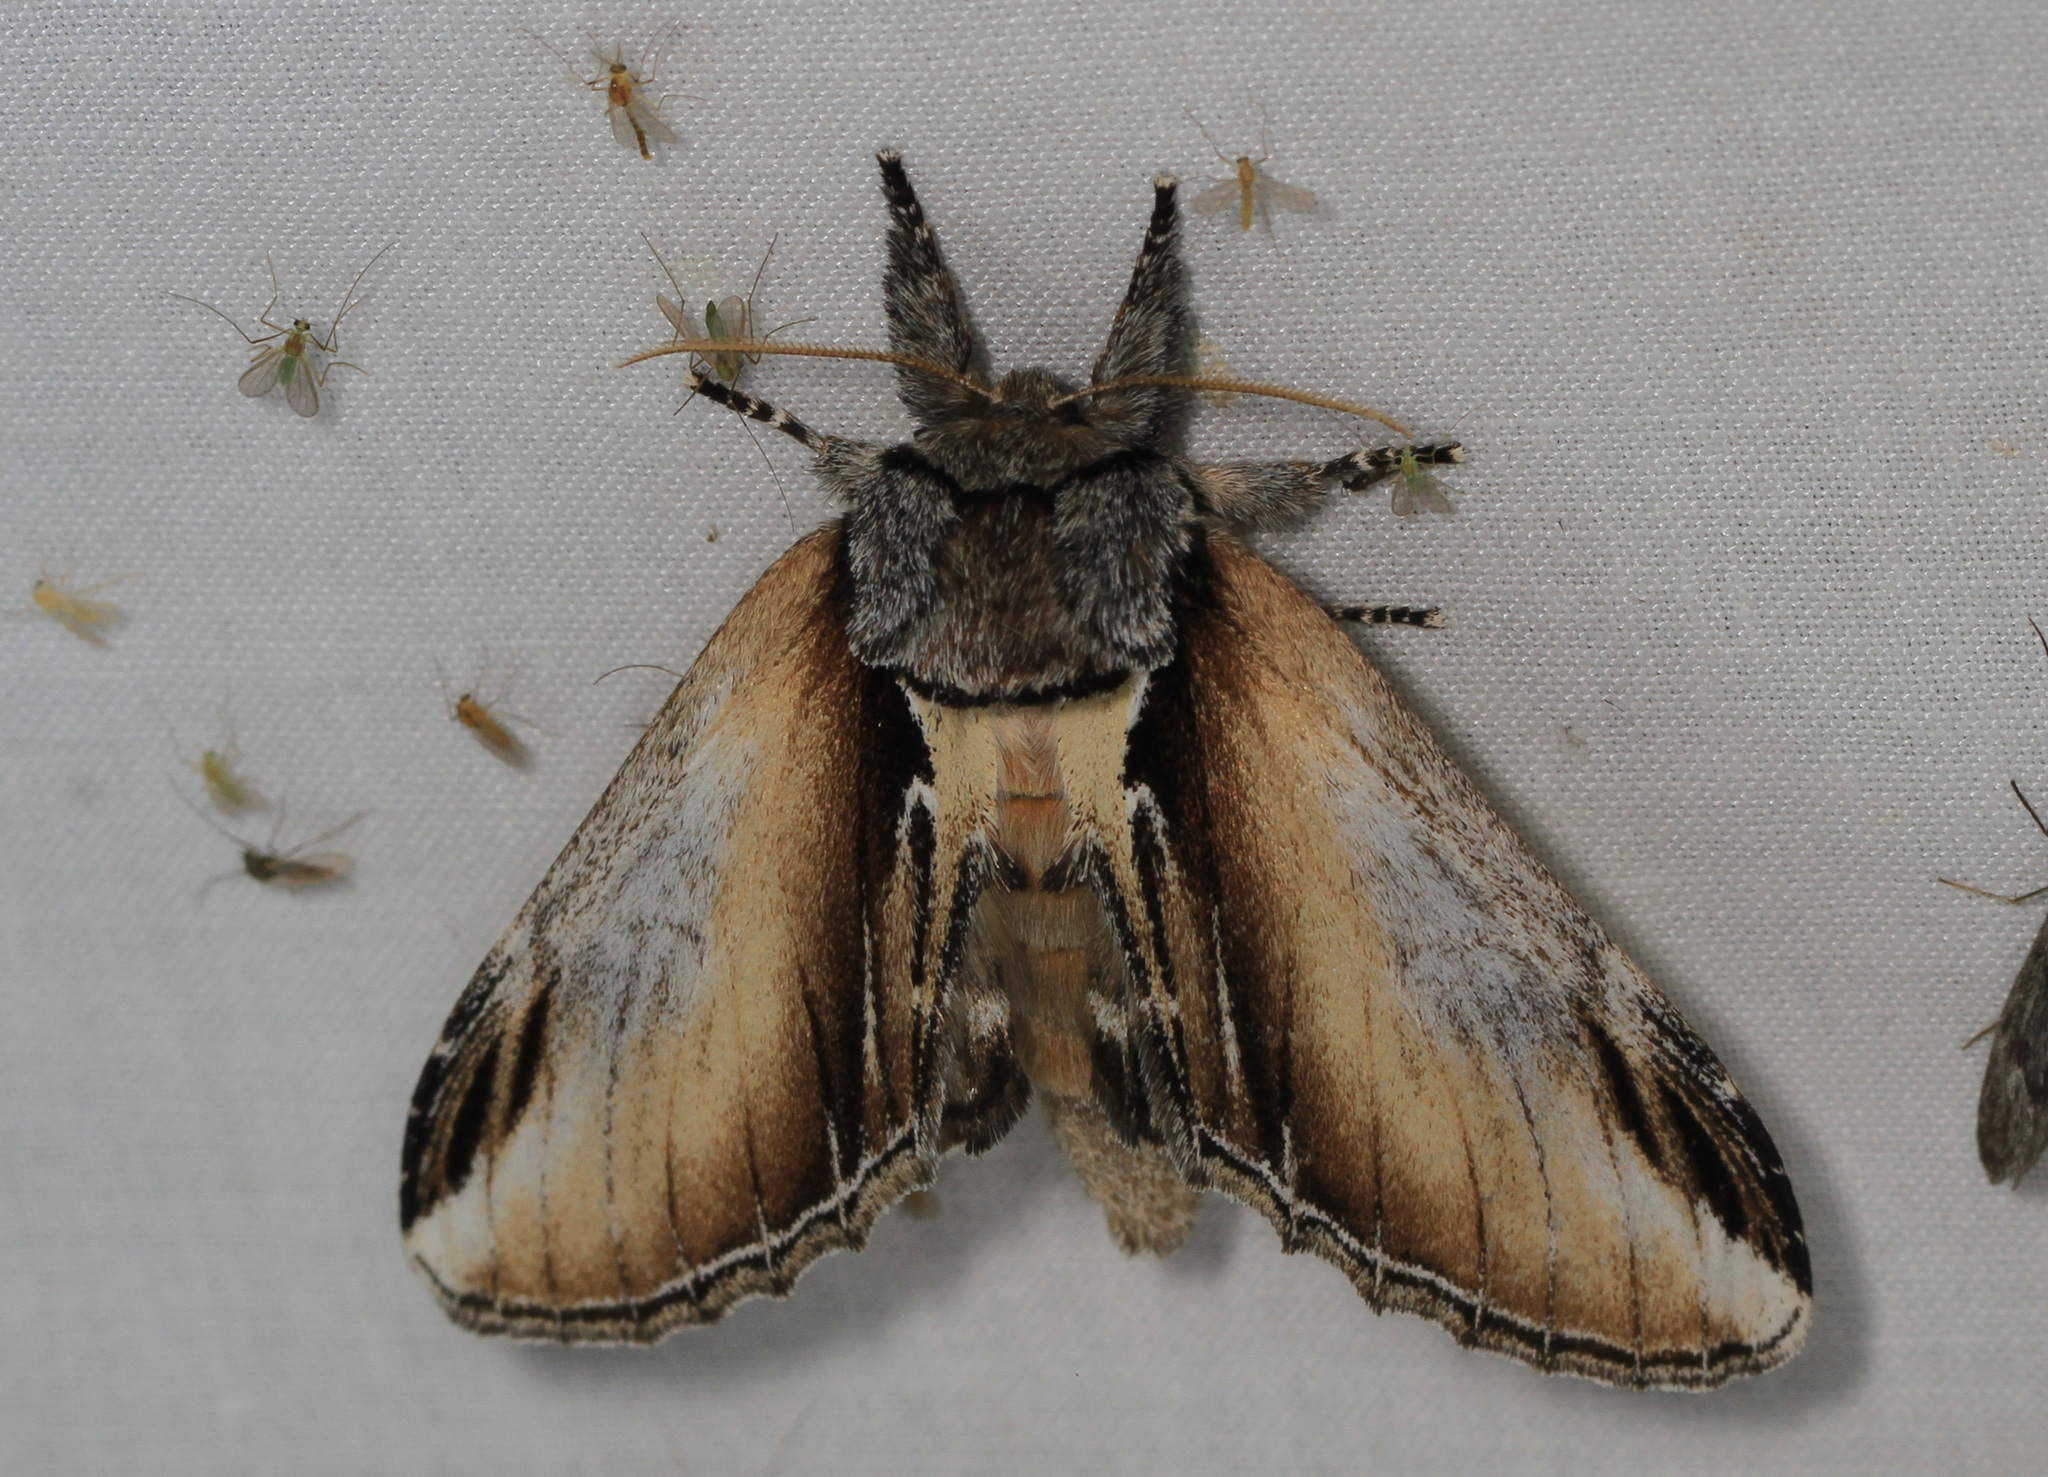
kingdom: Animalia
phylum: Arthropoda
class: Insecta
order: Lepidoptera
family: Notodontidae
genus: Pheosia
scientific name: Pheosia rimosa
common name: Black-rimmed prominent
